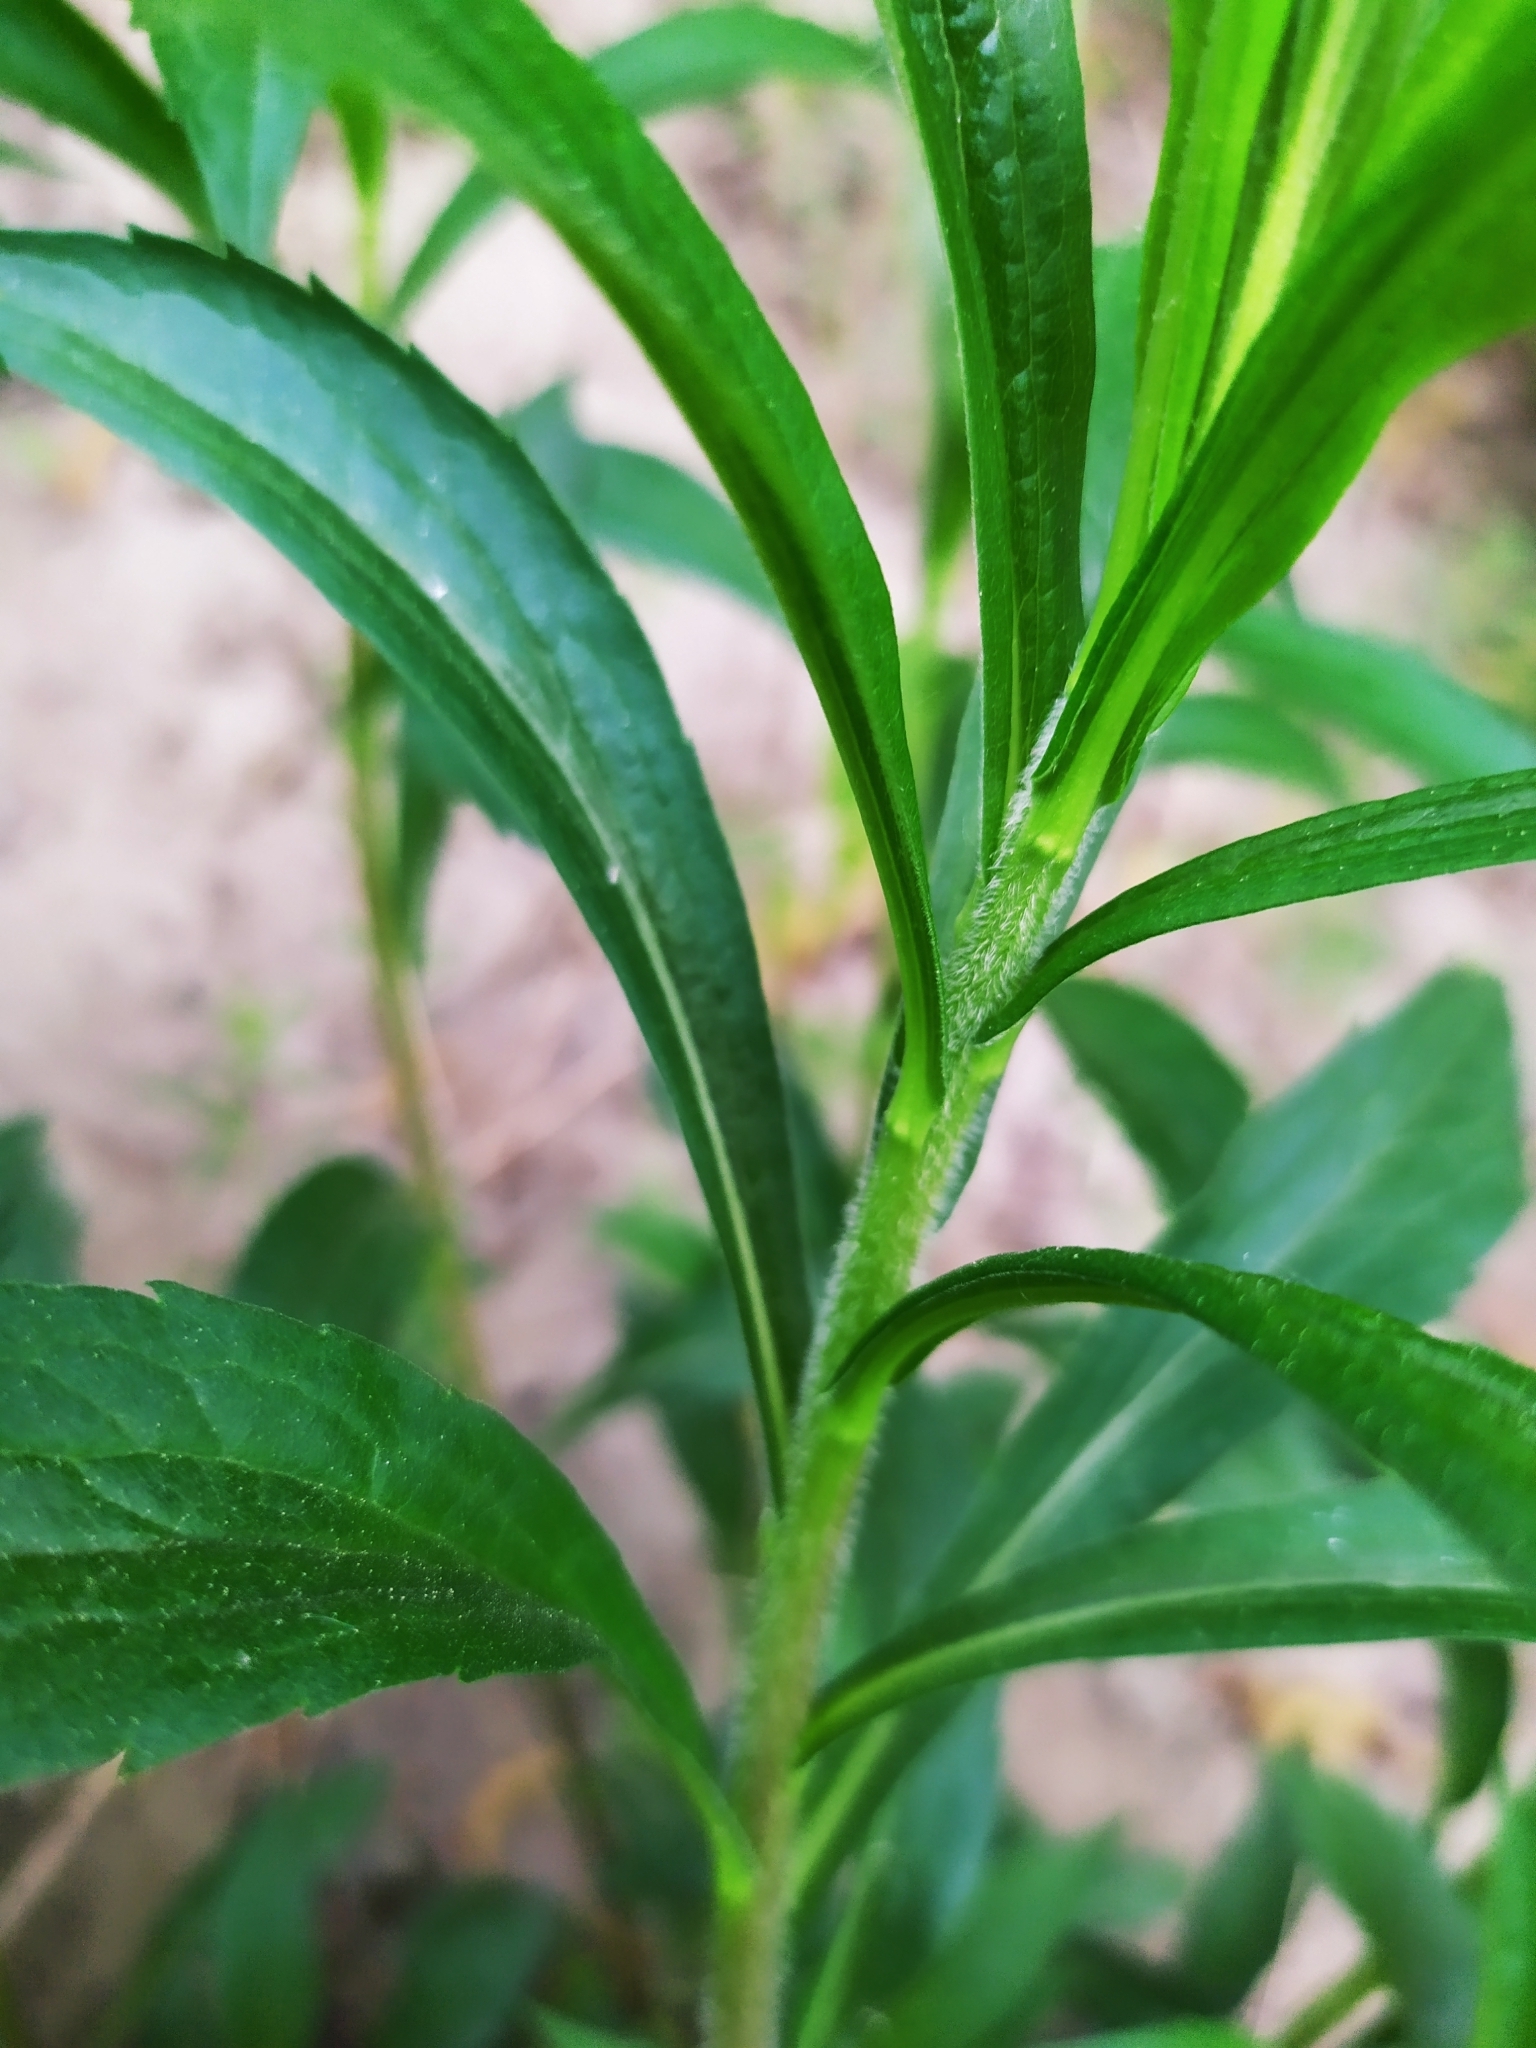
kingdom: Plantae
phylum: Tracheophyta
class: Magnoliopsida
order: Asterales
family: Asteraceae
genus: Solidago
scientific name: Solidago canadensis
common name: Canada goldenrod
